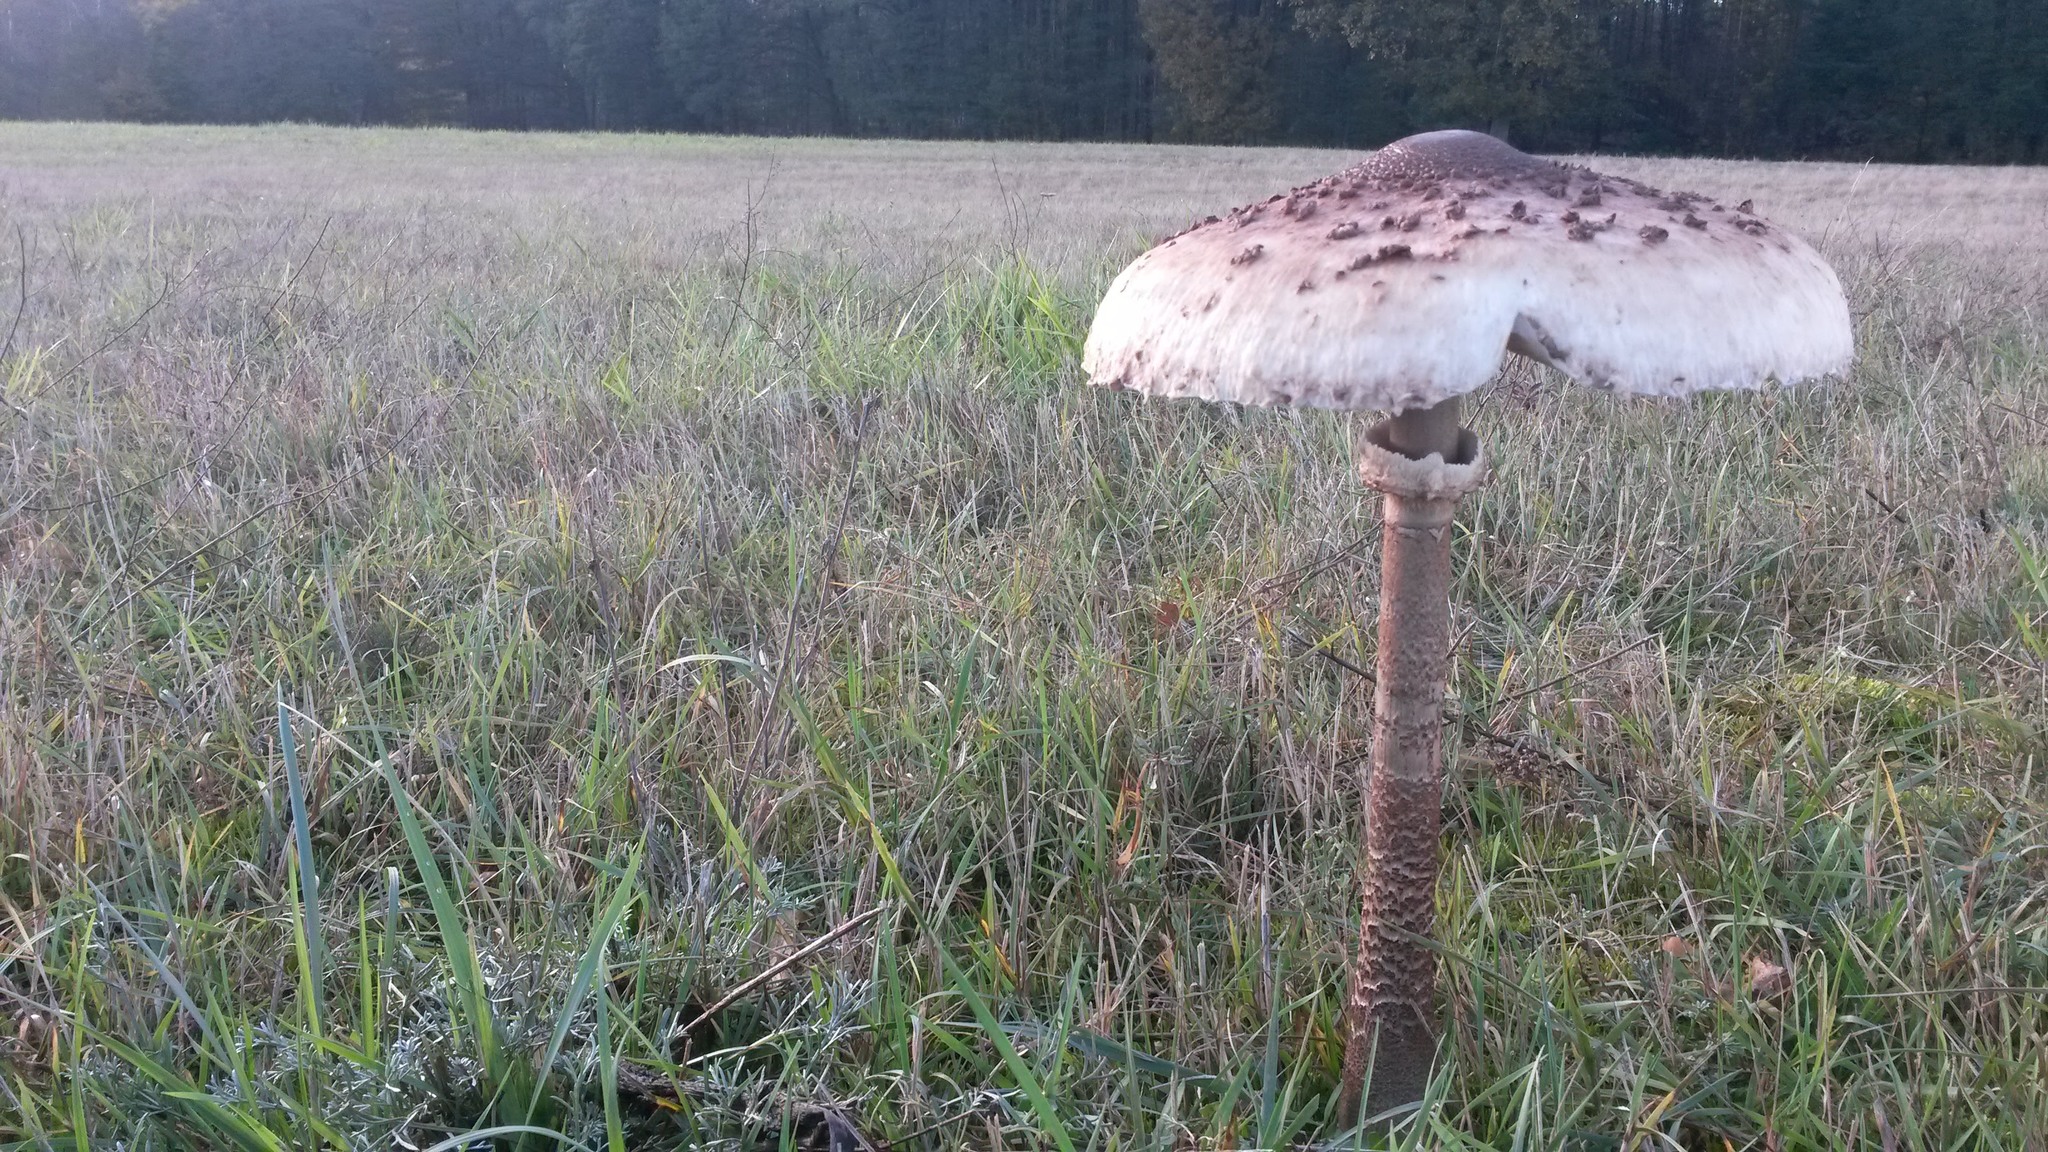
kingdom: Fungi
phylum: Basidiomycota
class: Agaricomycetes
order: Agaricales
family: Agaricaceae
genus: Macrolepiota
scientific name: Macrolepiota procera
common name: Parasol
